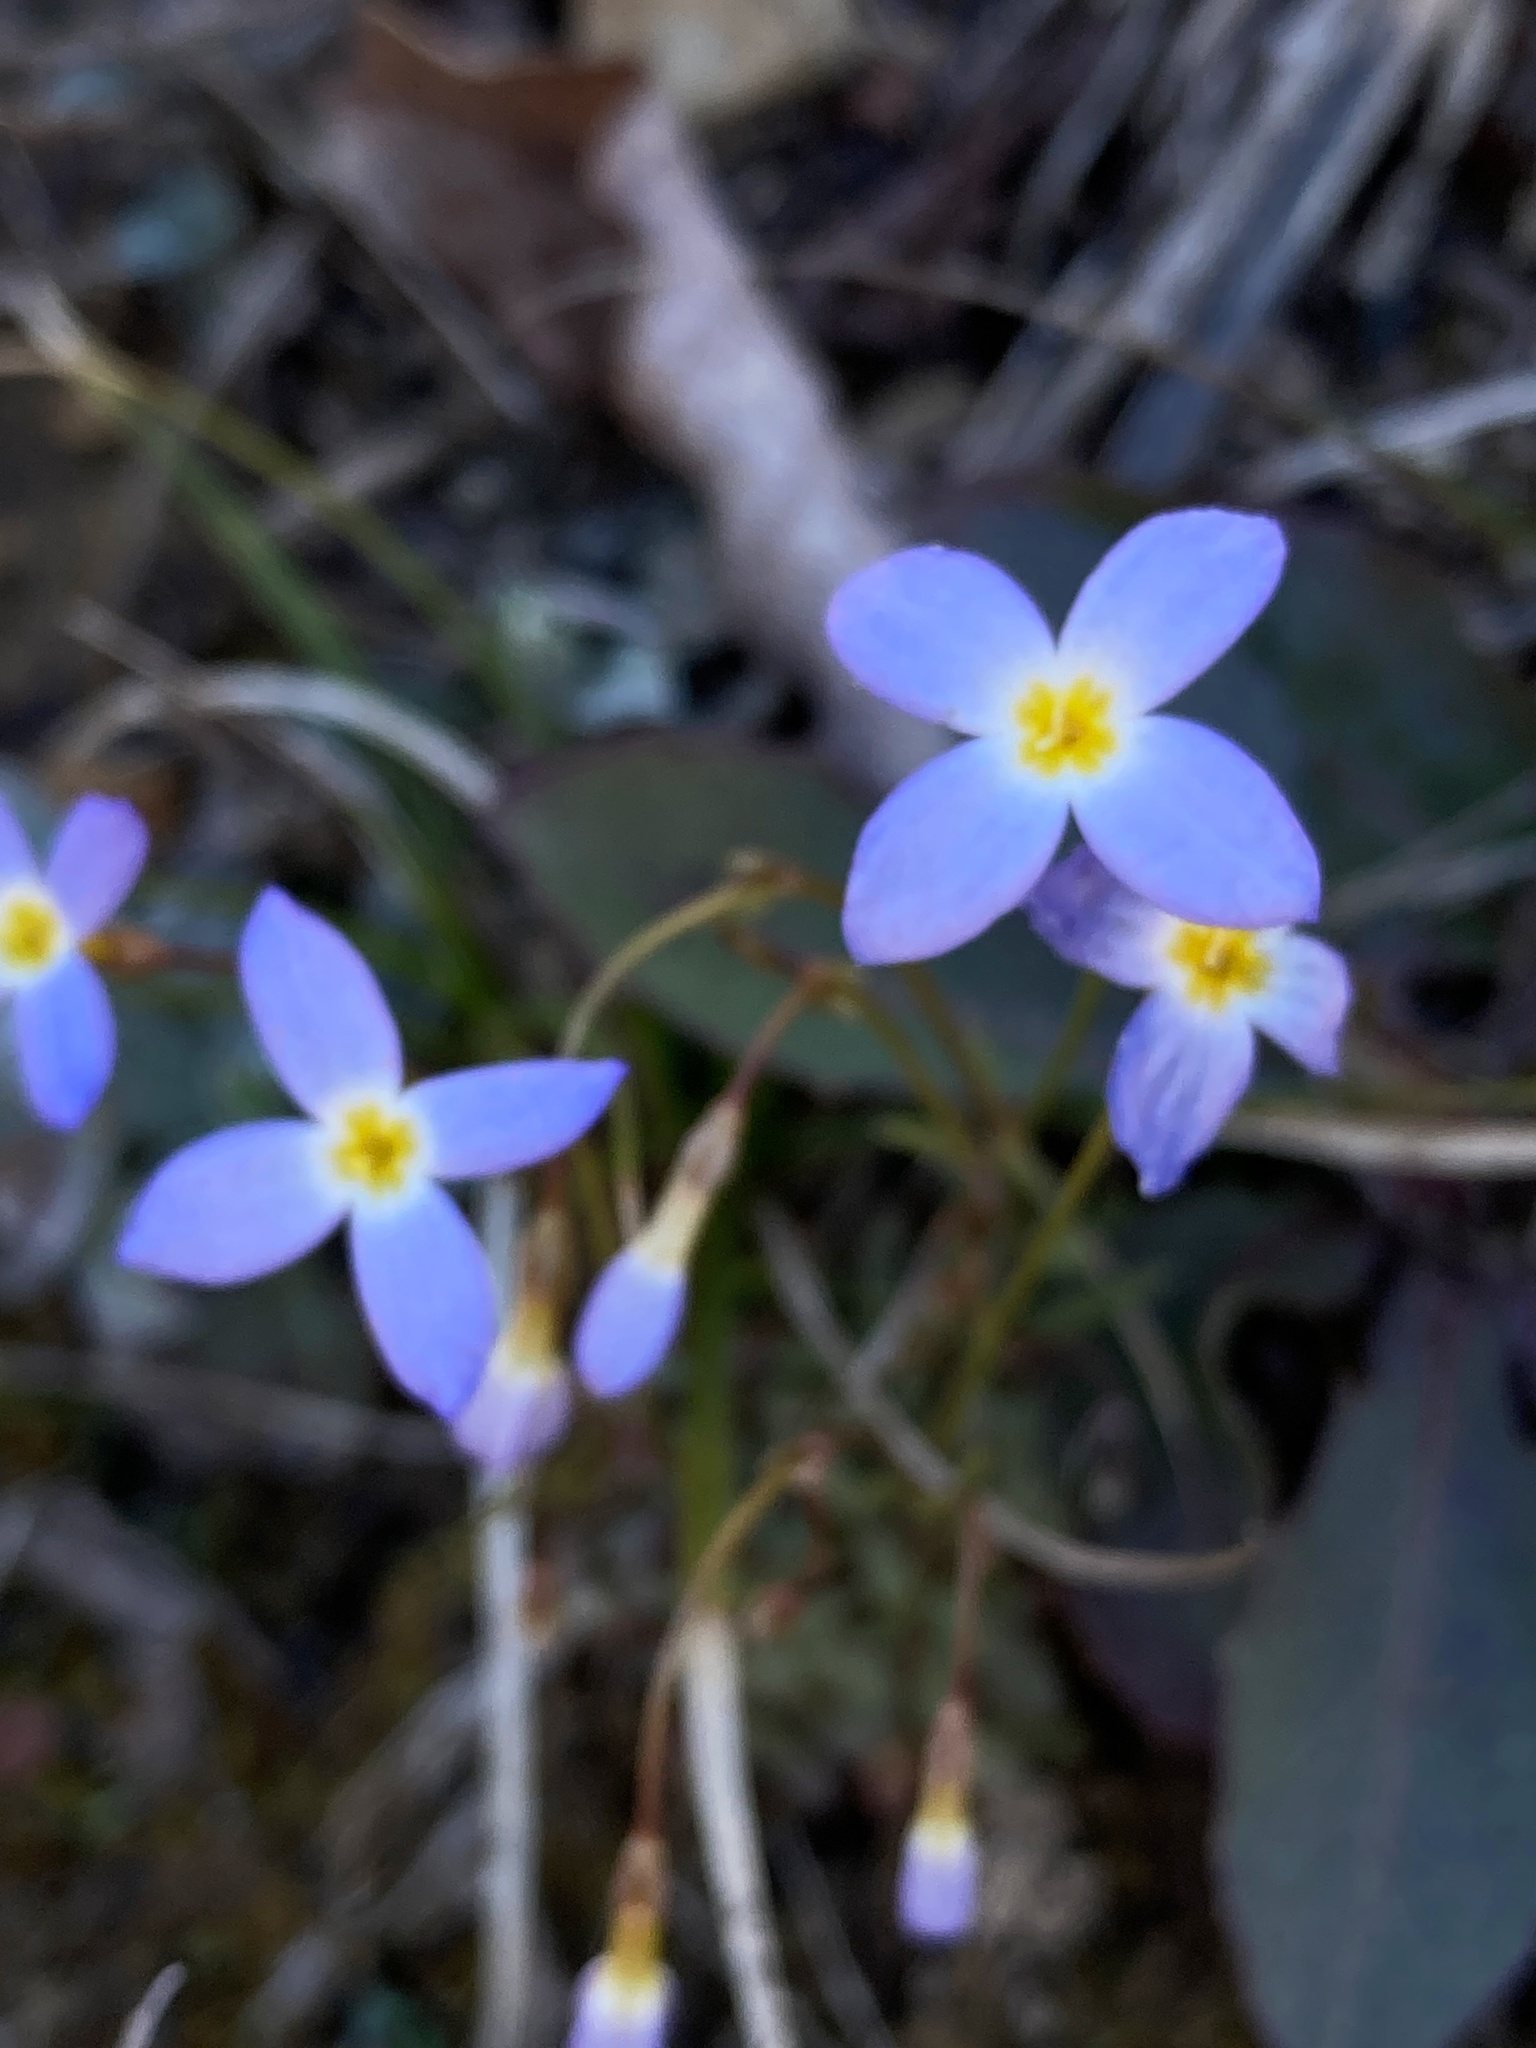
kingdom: Plantae
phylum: Tracheophyta
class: Magnoliopsida
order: Gentianales
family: Rubiaceae
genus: Houstonia
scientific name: Houstonia caerulea
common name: Bluets
